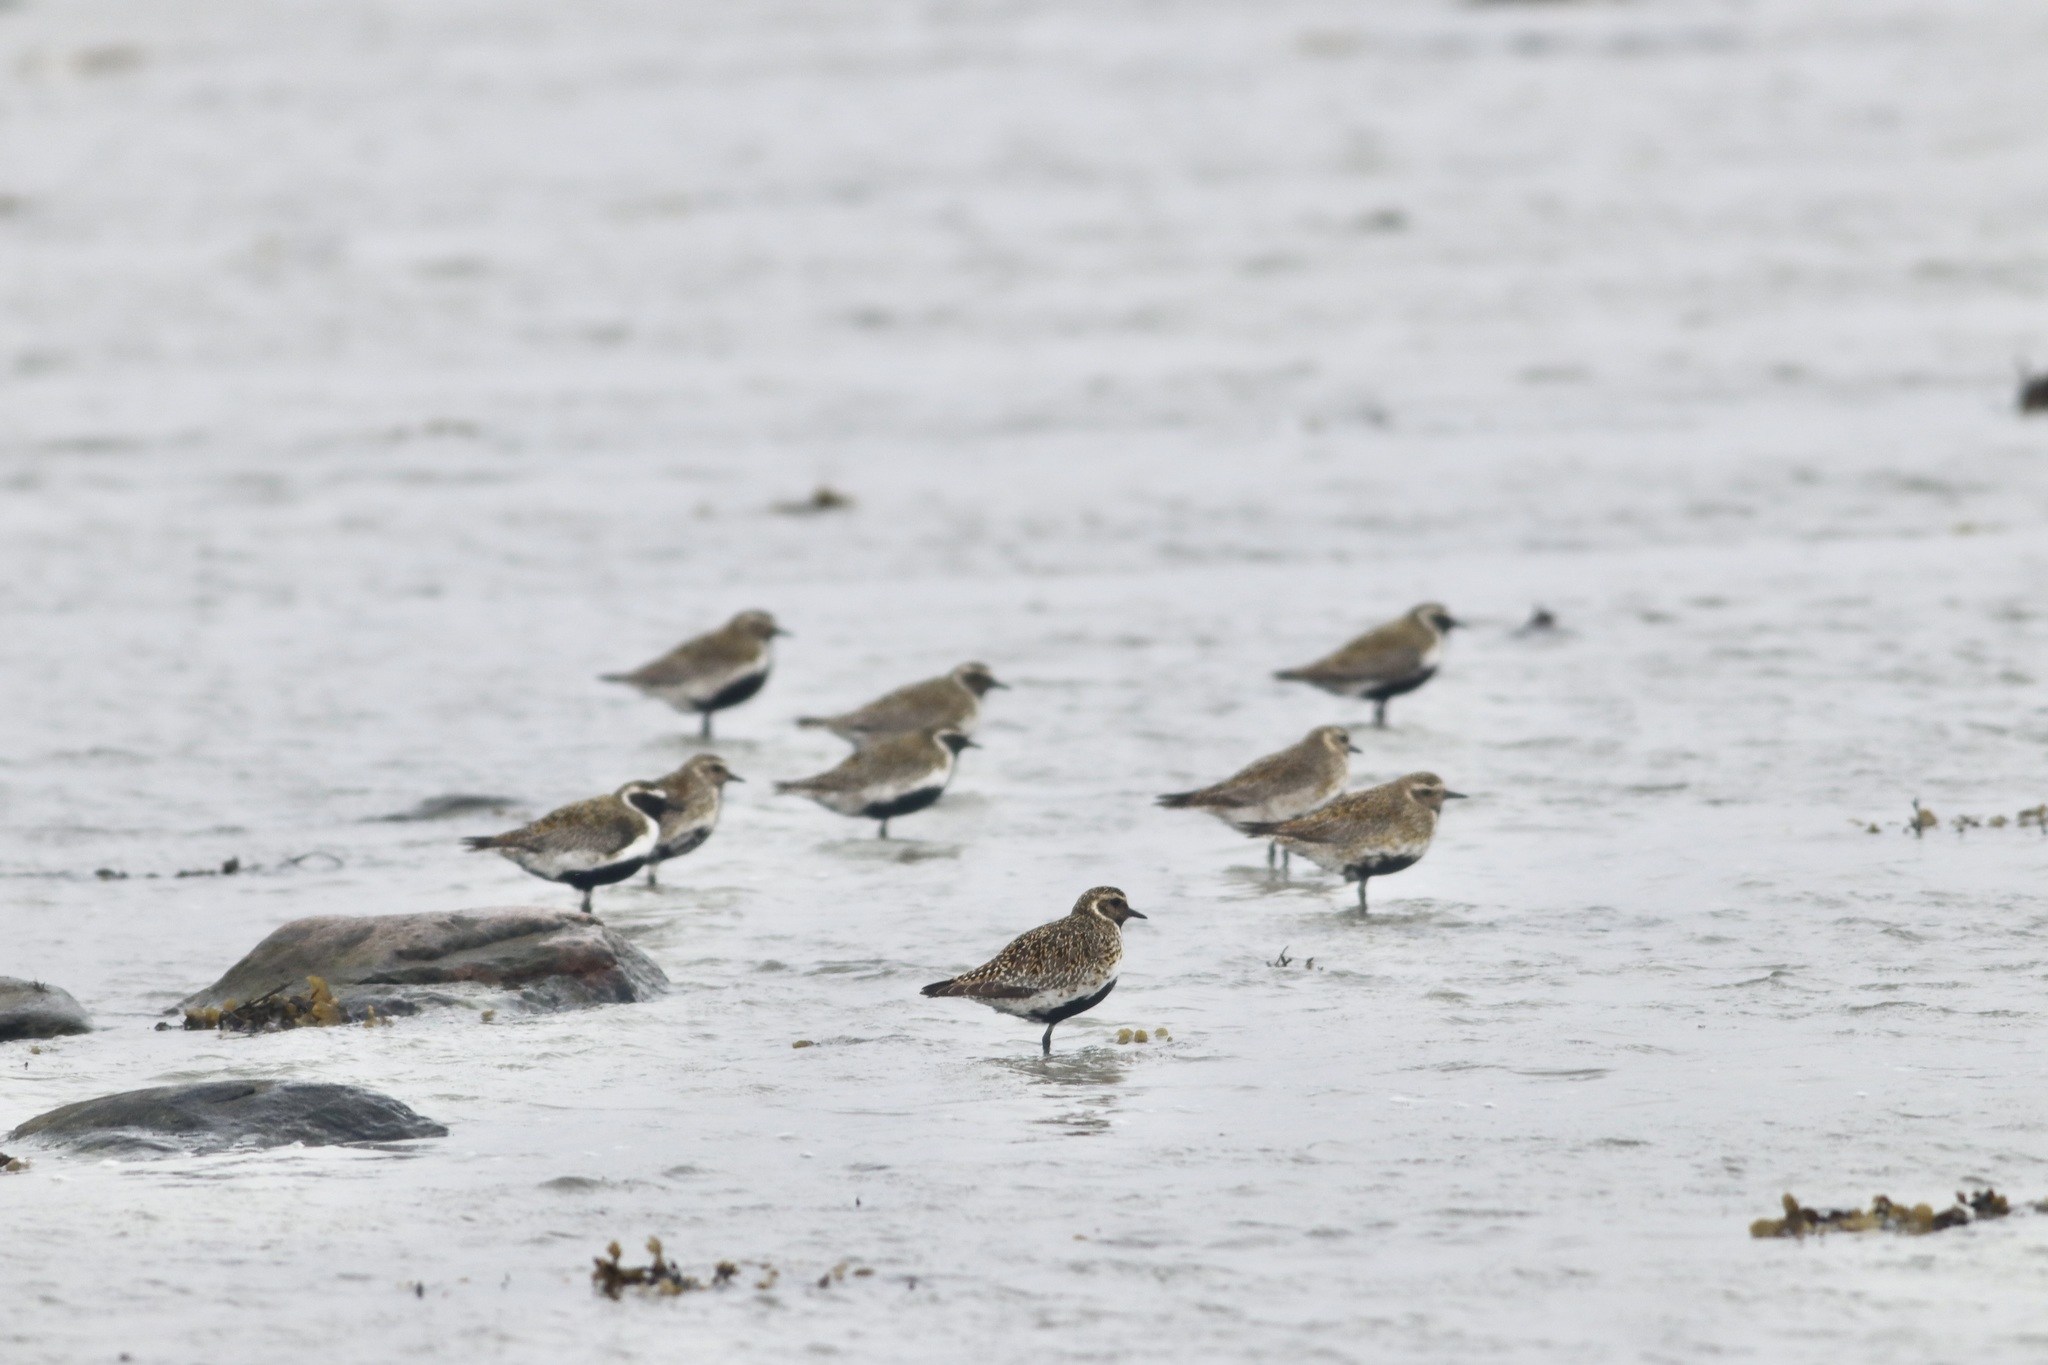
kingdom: Animalia
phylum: Chordata
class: Aves
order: Charadriiformes
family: Charadriidae
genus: Pluvialis
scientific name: Pluvialis apricaria
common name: European golden plover
